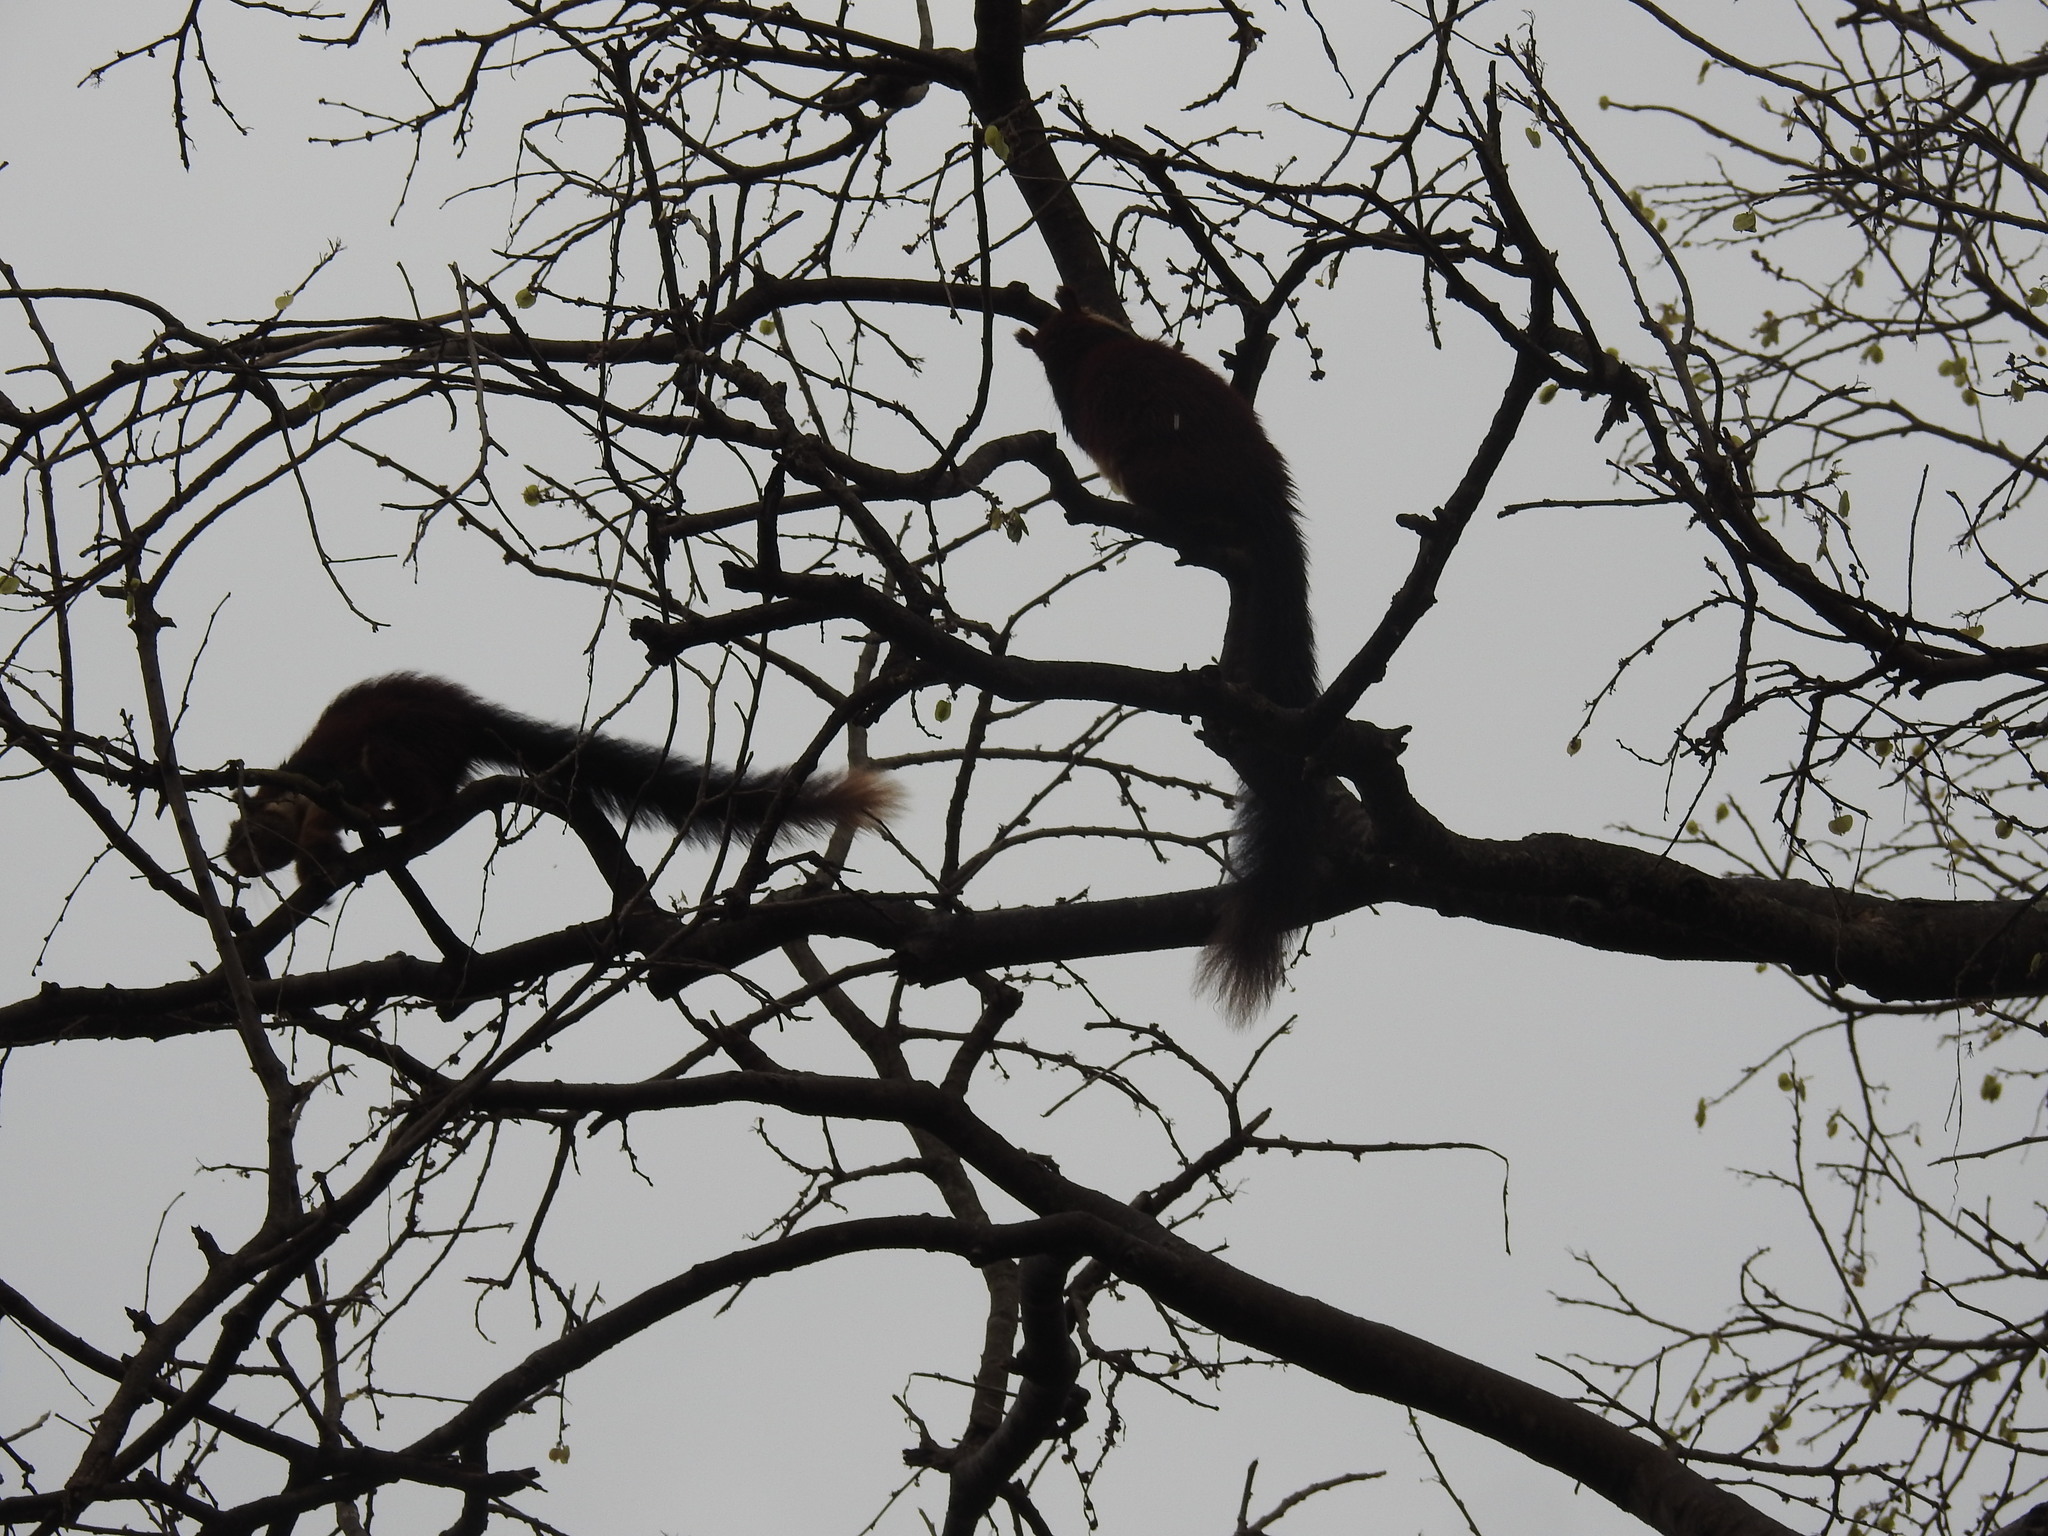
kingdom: Animalia
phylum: Chordata
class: Mammalia
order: Rodentia
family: Sciuridae
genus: Ratufa
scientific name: Ratufa indica
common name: Indian giant squirrel
